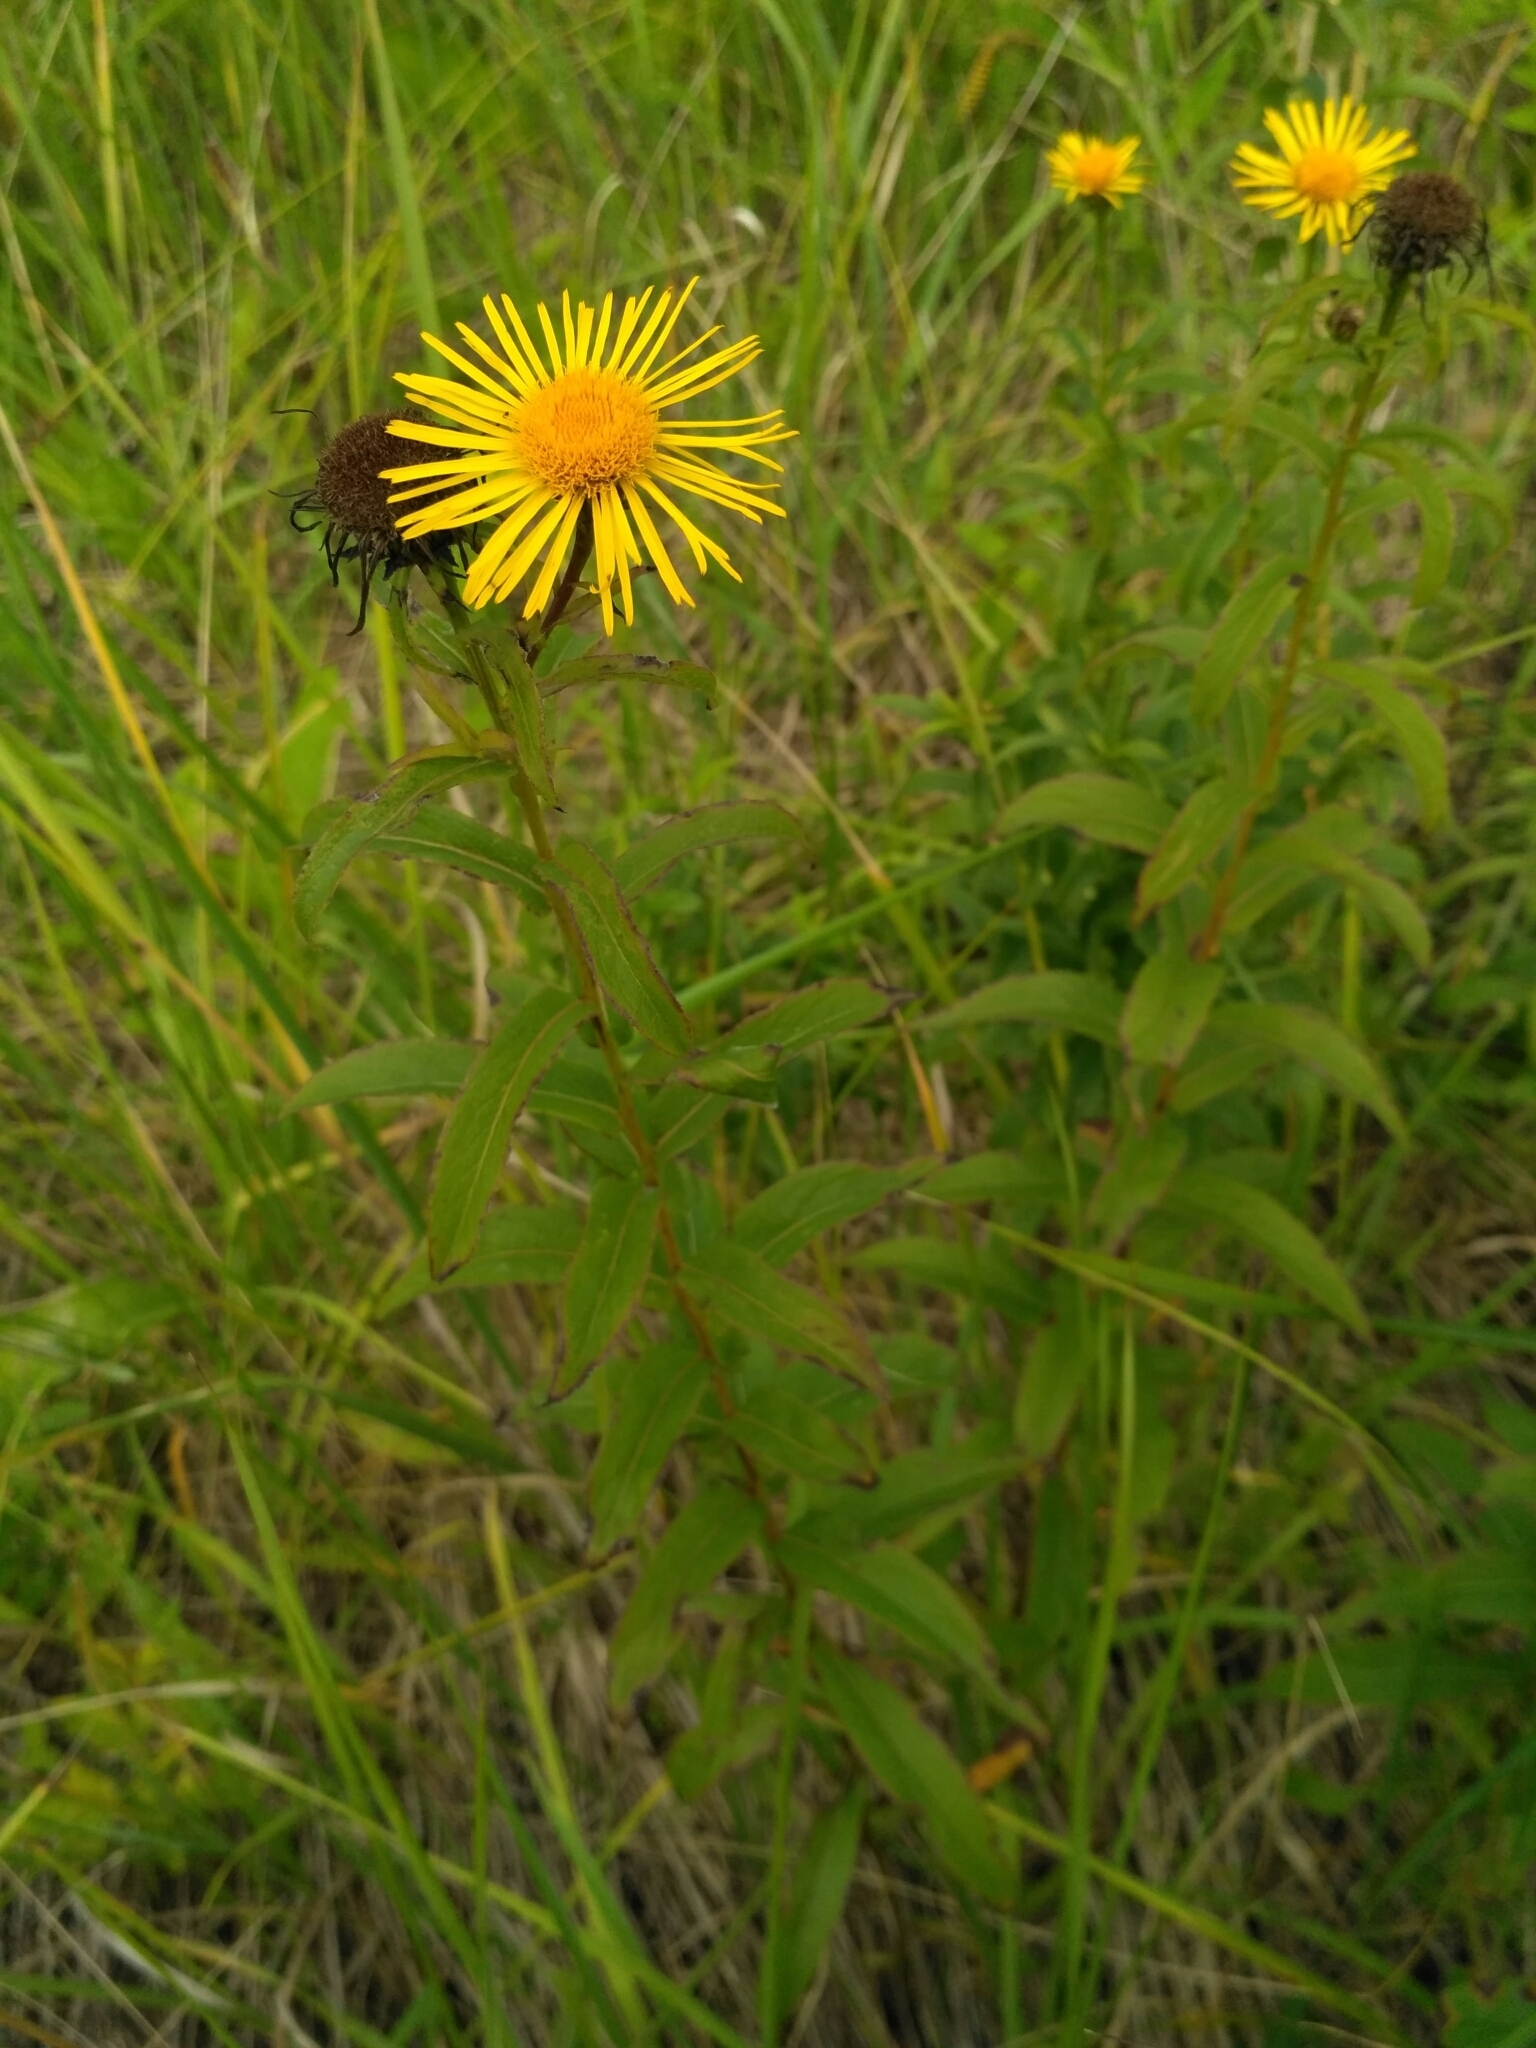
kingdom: Plantae
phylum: Tracheophyta
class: Magnoliopsida
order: Asterales
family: Asteraceae
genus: Pentanema
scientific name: Pentanema salicinum
